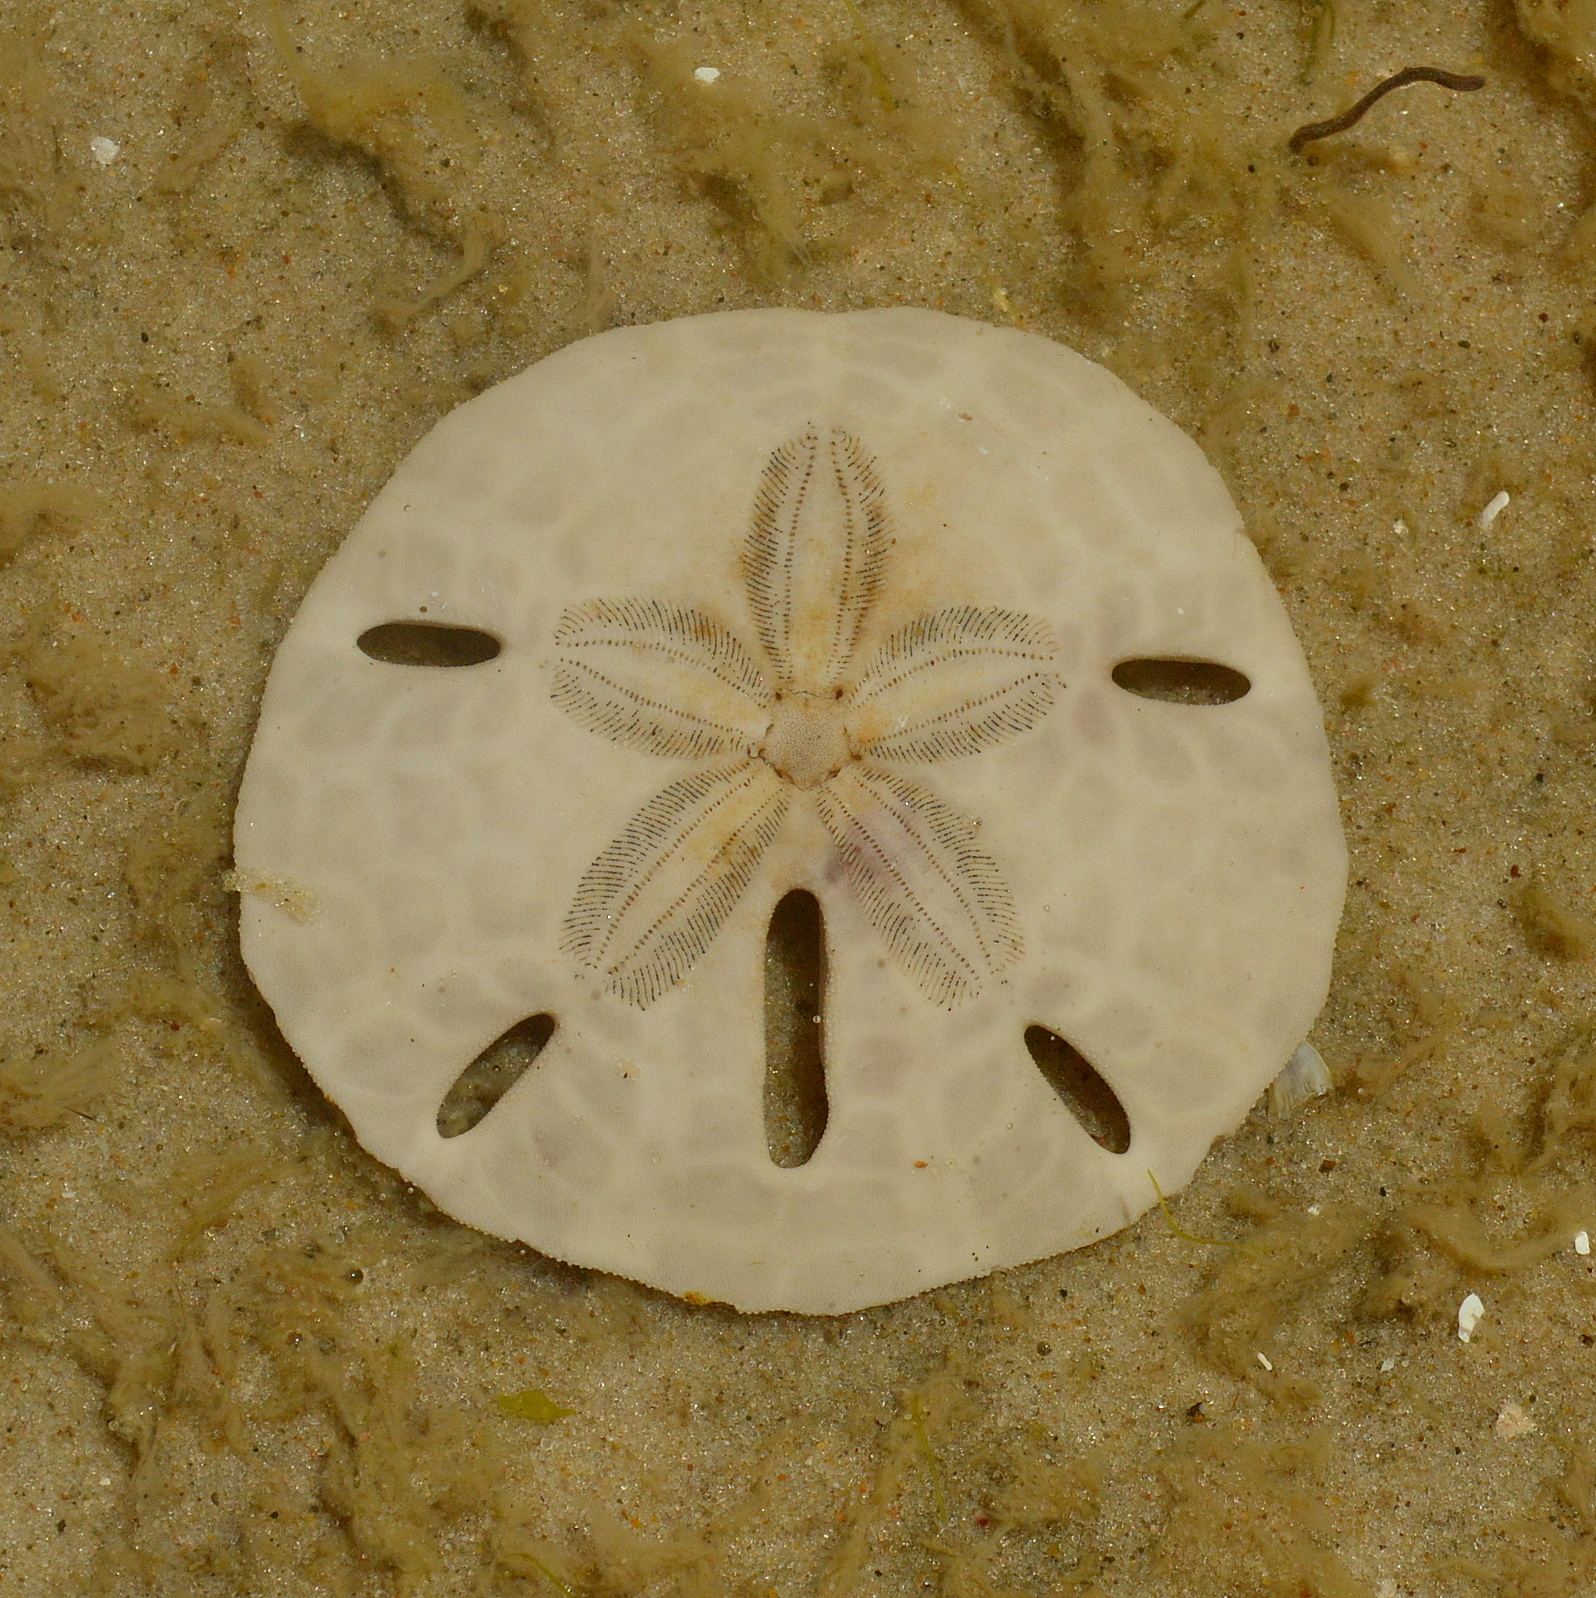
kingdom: Animalia
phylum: Echinodermata
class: Echinoidea
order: Echinolampadacea
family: Mellitidae
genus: Mellita
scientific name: Mellita quinquiesperforata
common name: Sand dollar
